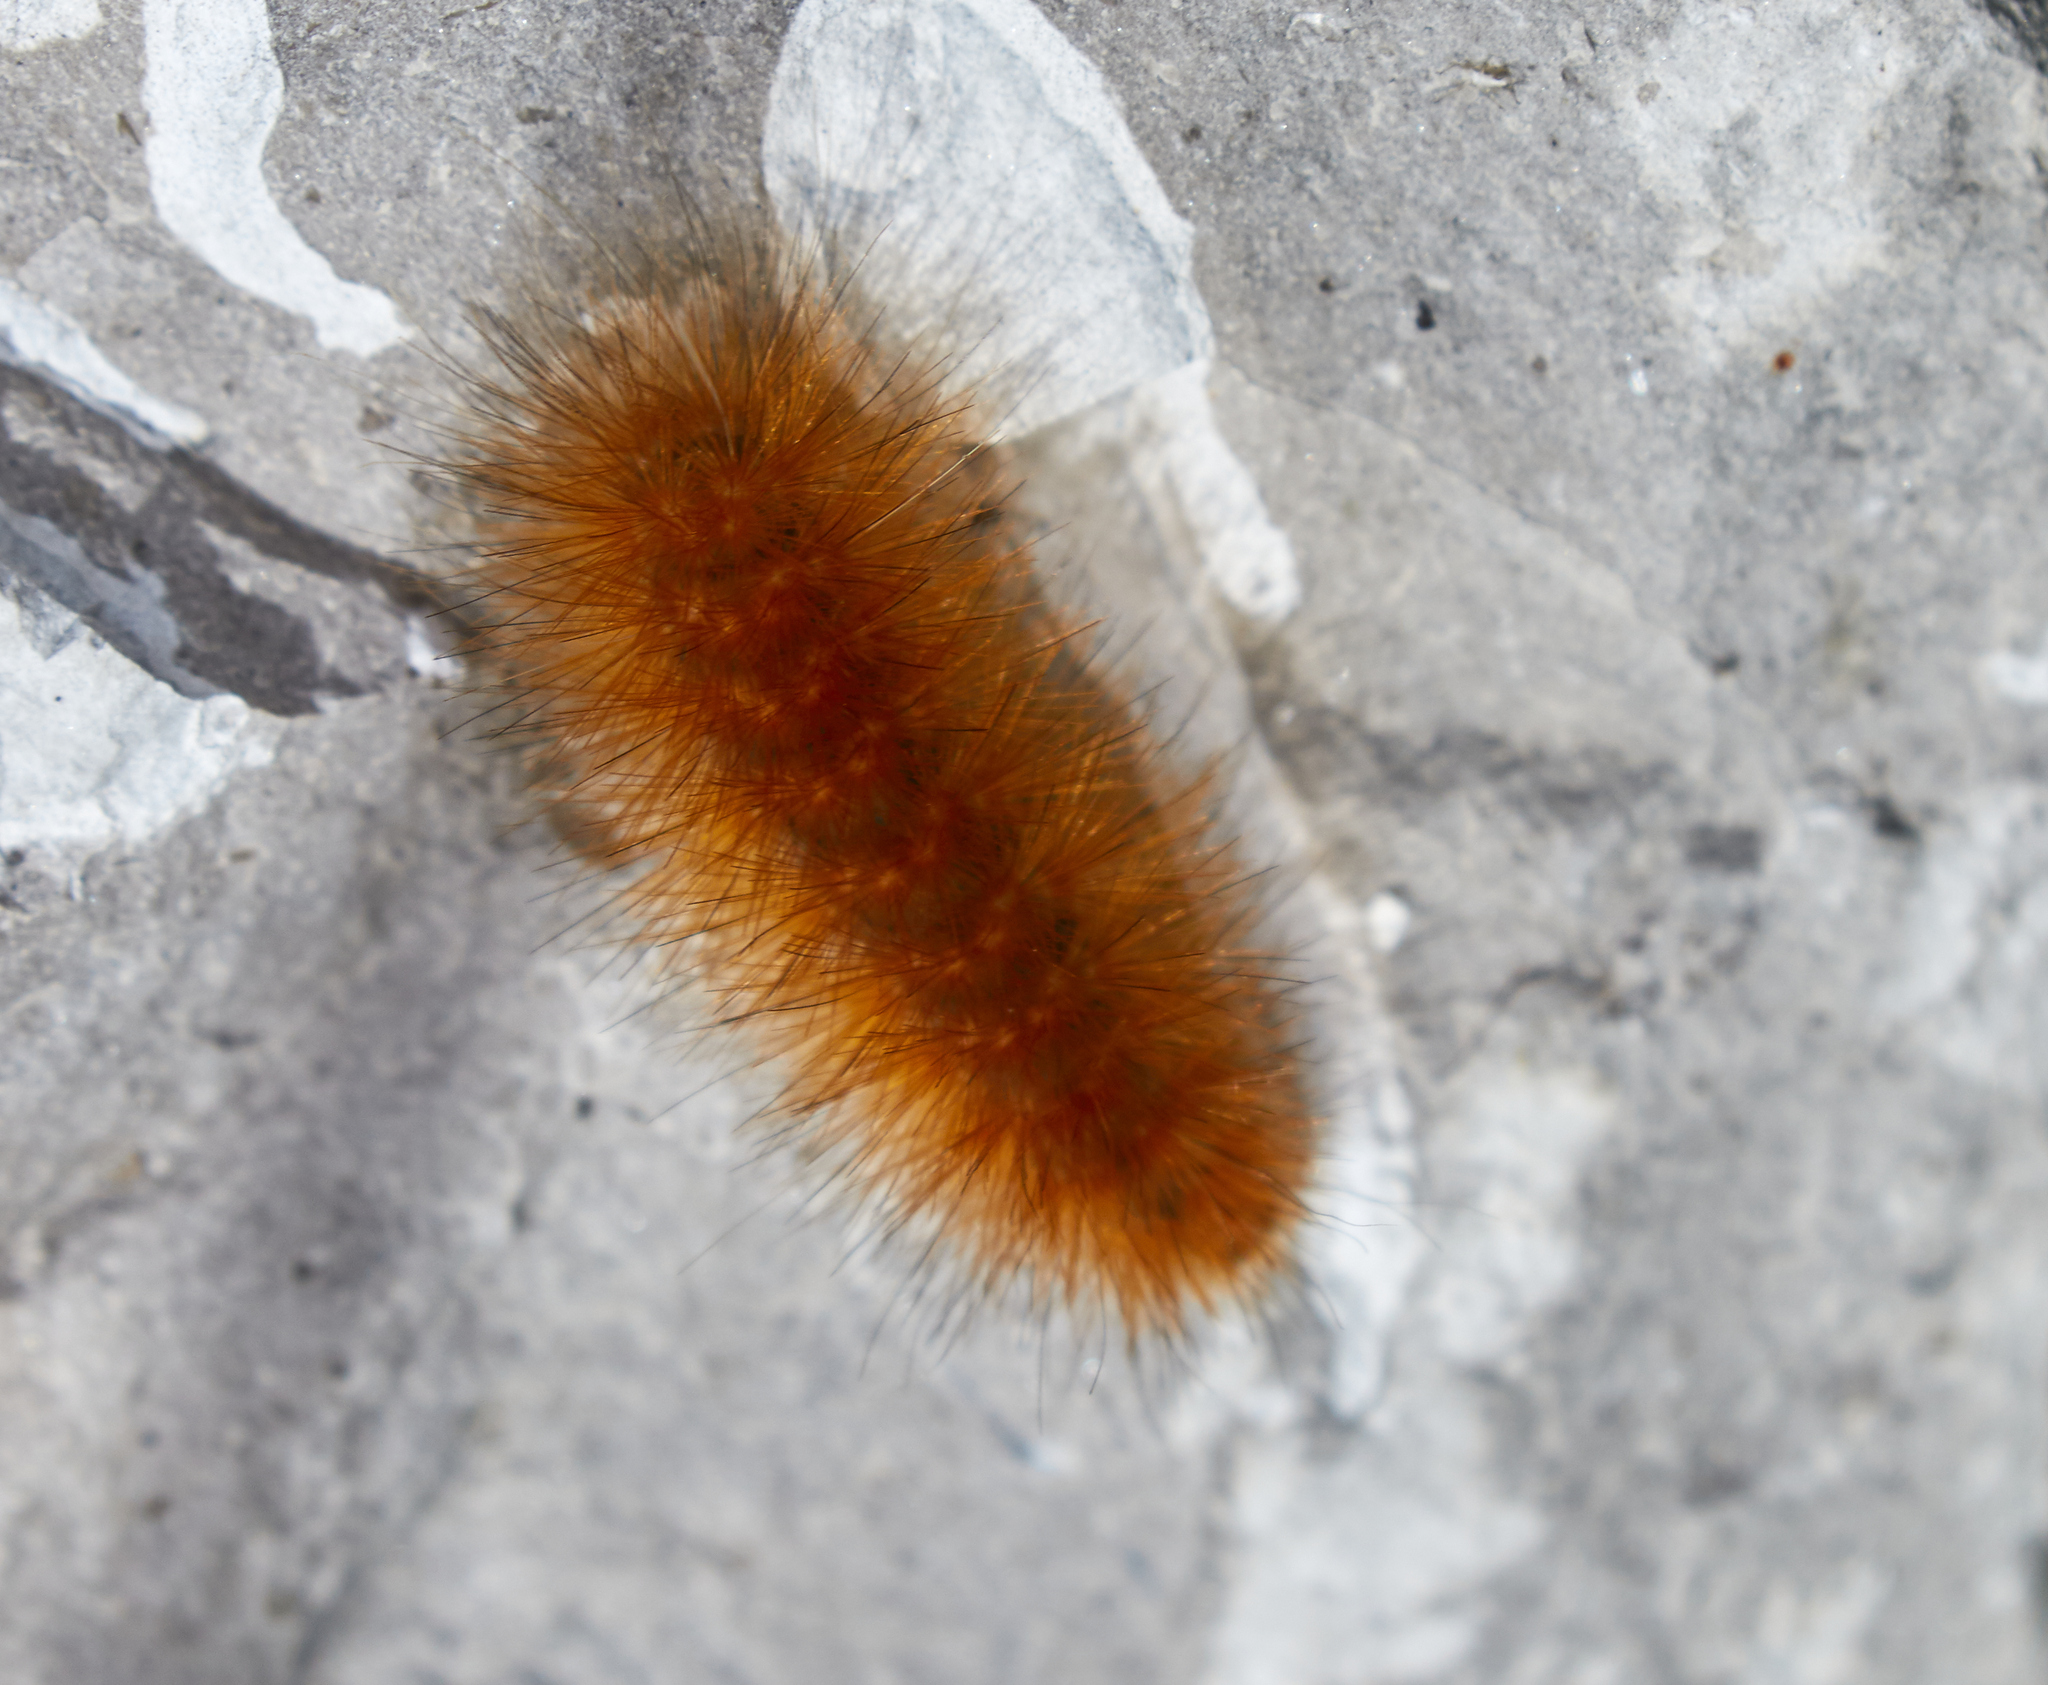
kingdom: Animalia
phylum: Arthropoda
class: Insecta
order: Lepidoptera
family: Erebidae
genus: Spilosoma
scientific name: Spilosoma virginica
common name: Virginia tiger moth
